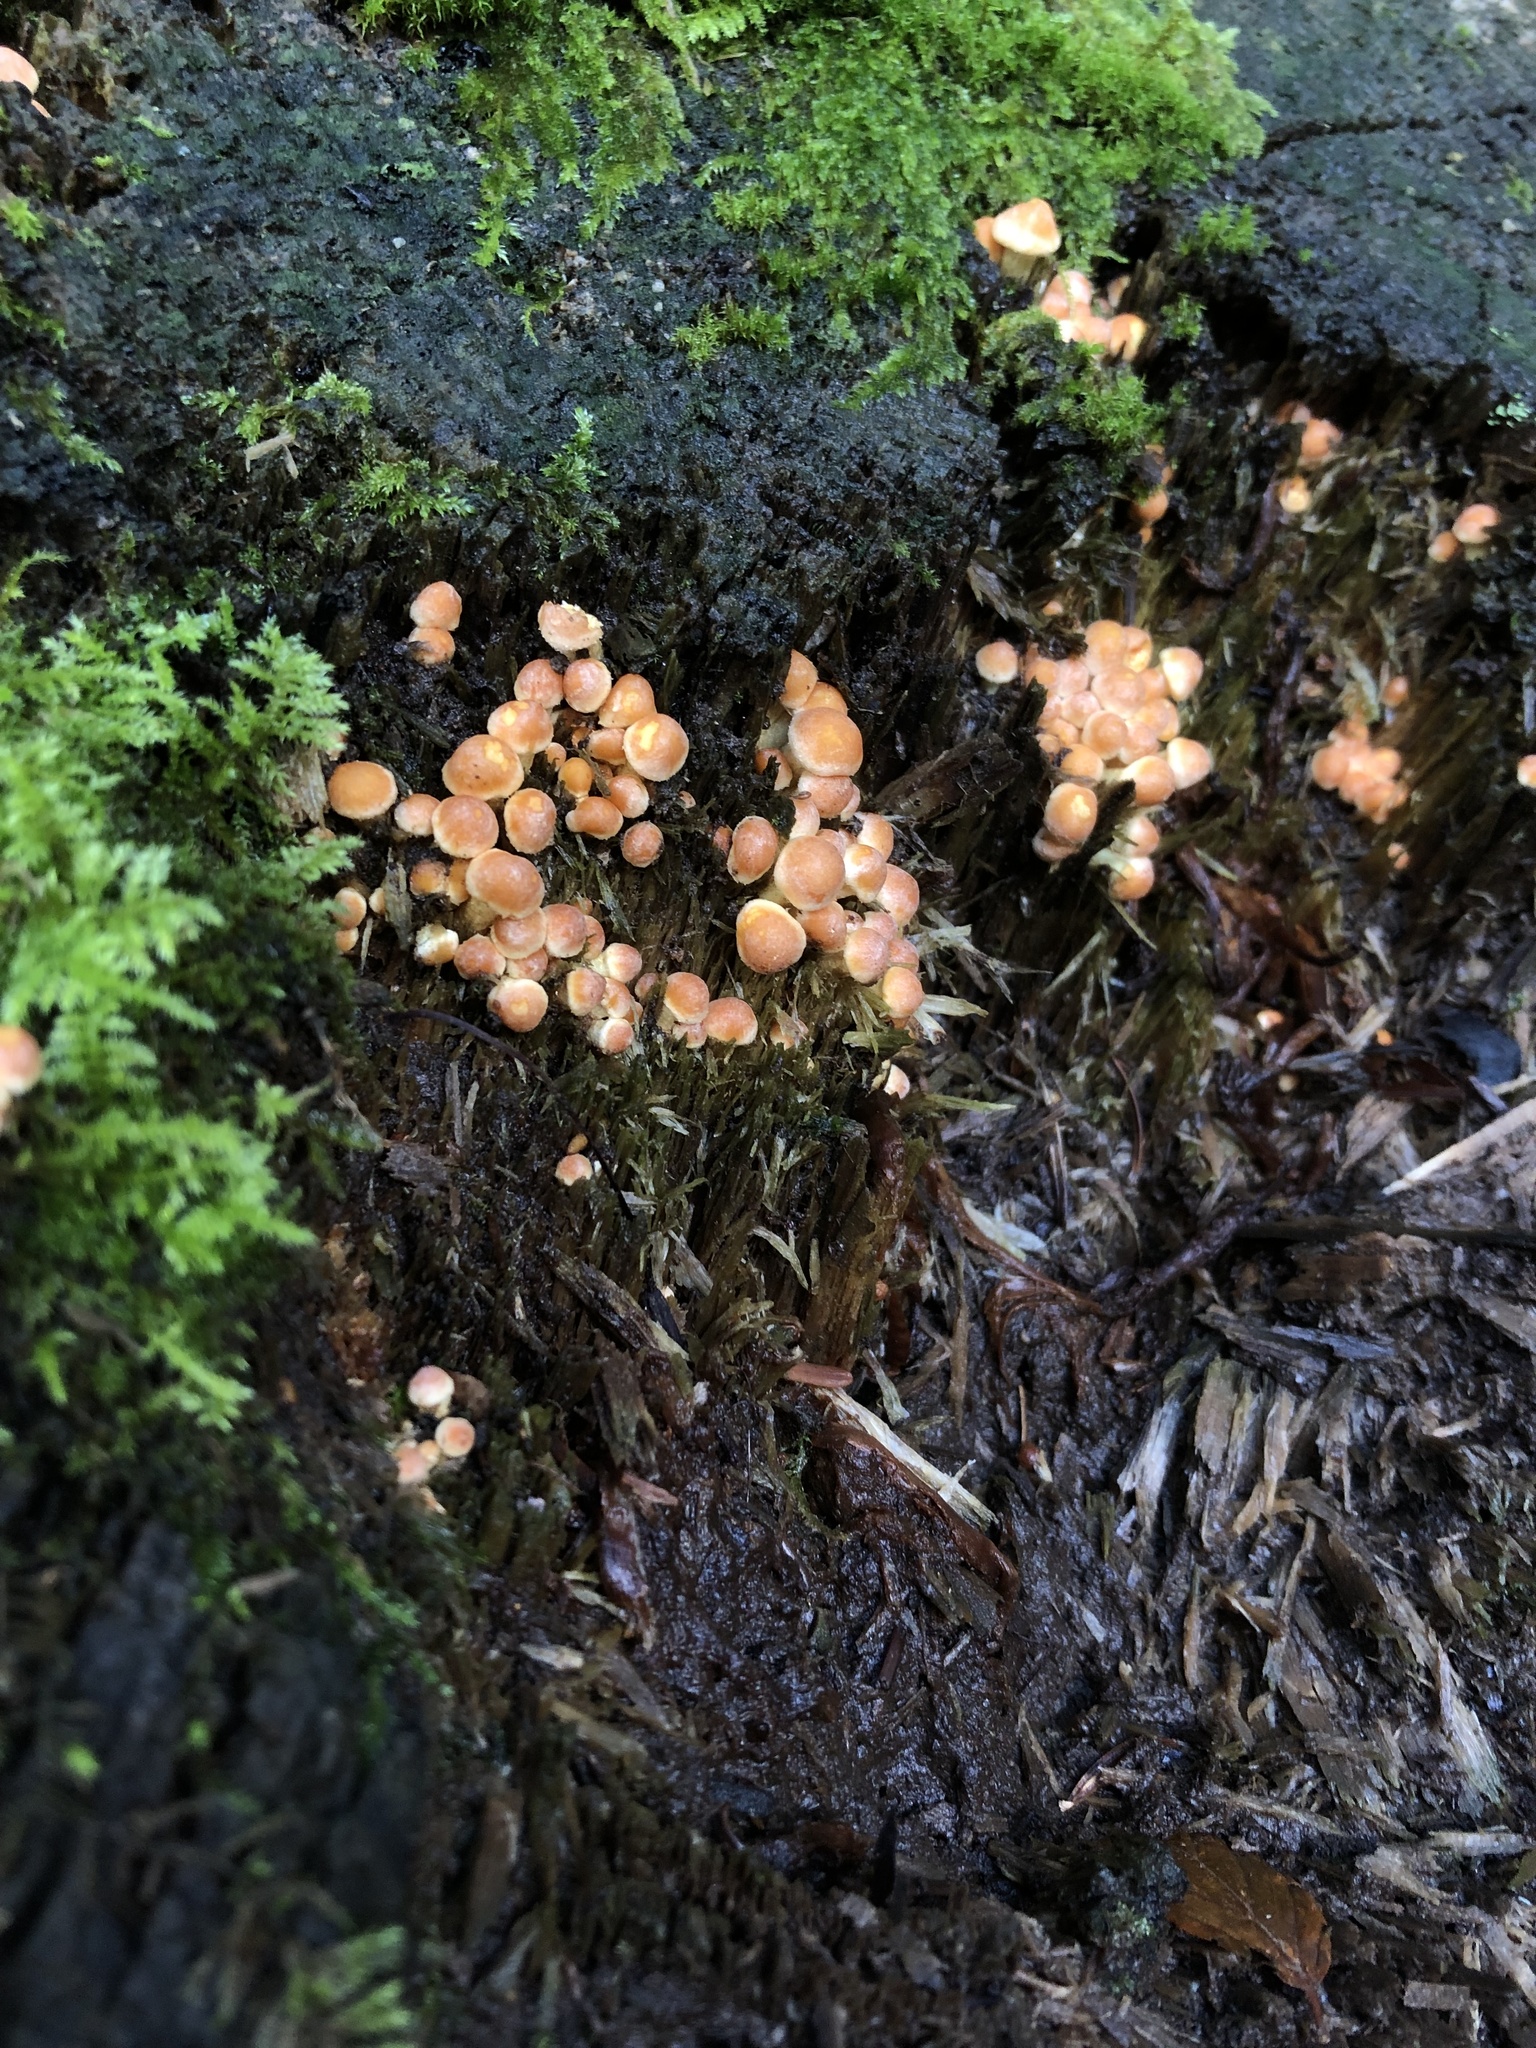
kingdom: Fungi
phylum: Basidiomycota
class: Agaricomycetes
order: Agaricales
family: Strophariaceae
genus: Hypholoma
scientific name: Hypholoma fasciculare
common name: Sulphur tuft
